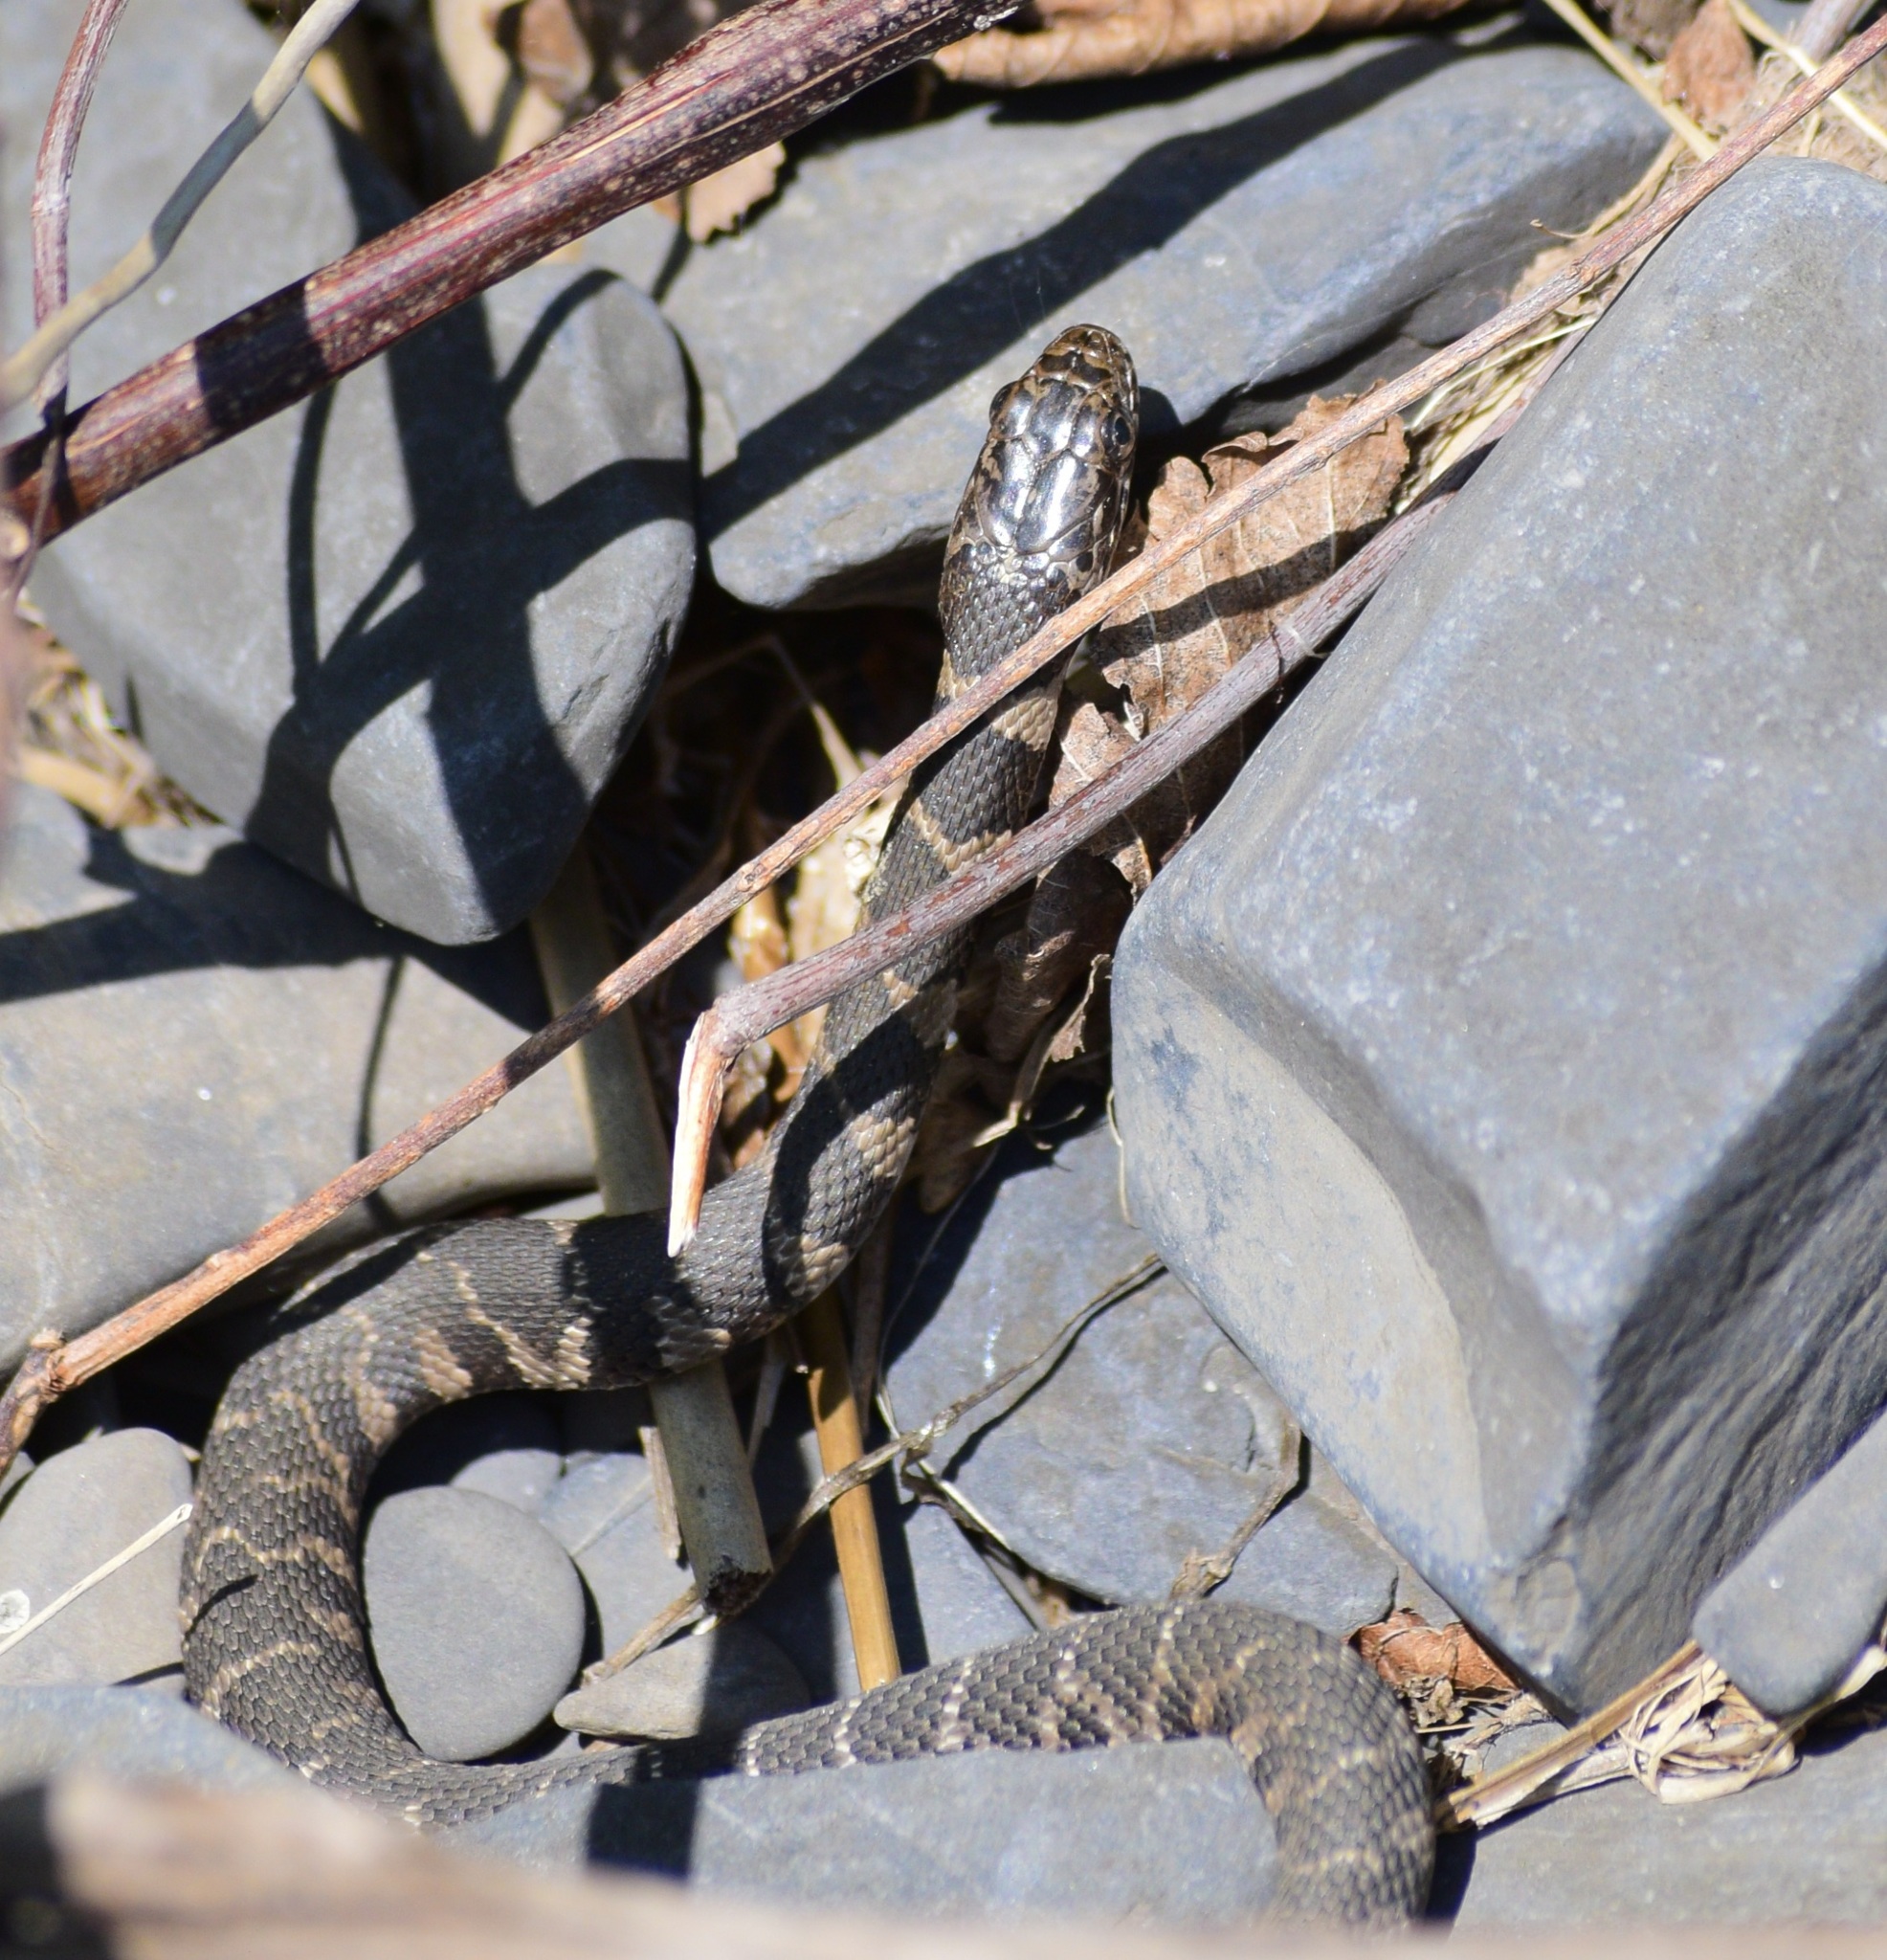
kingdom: Animalia
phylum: Chordata
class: Squamata
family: Colubridae
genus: Nerodia
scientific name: Nerodia sipedon
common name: Northern water snake
